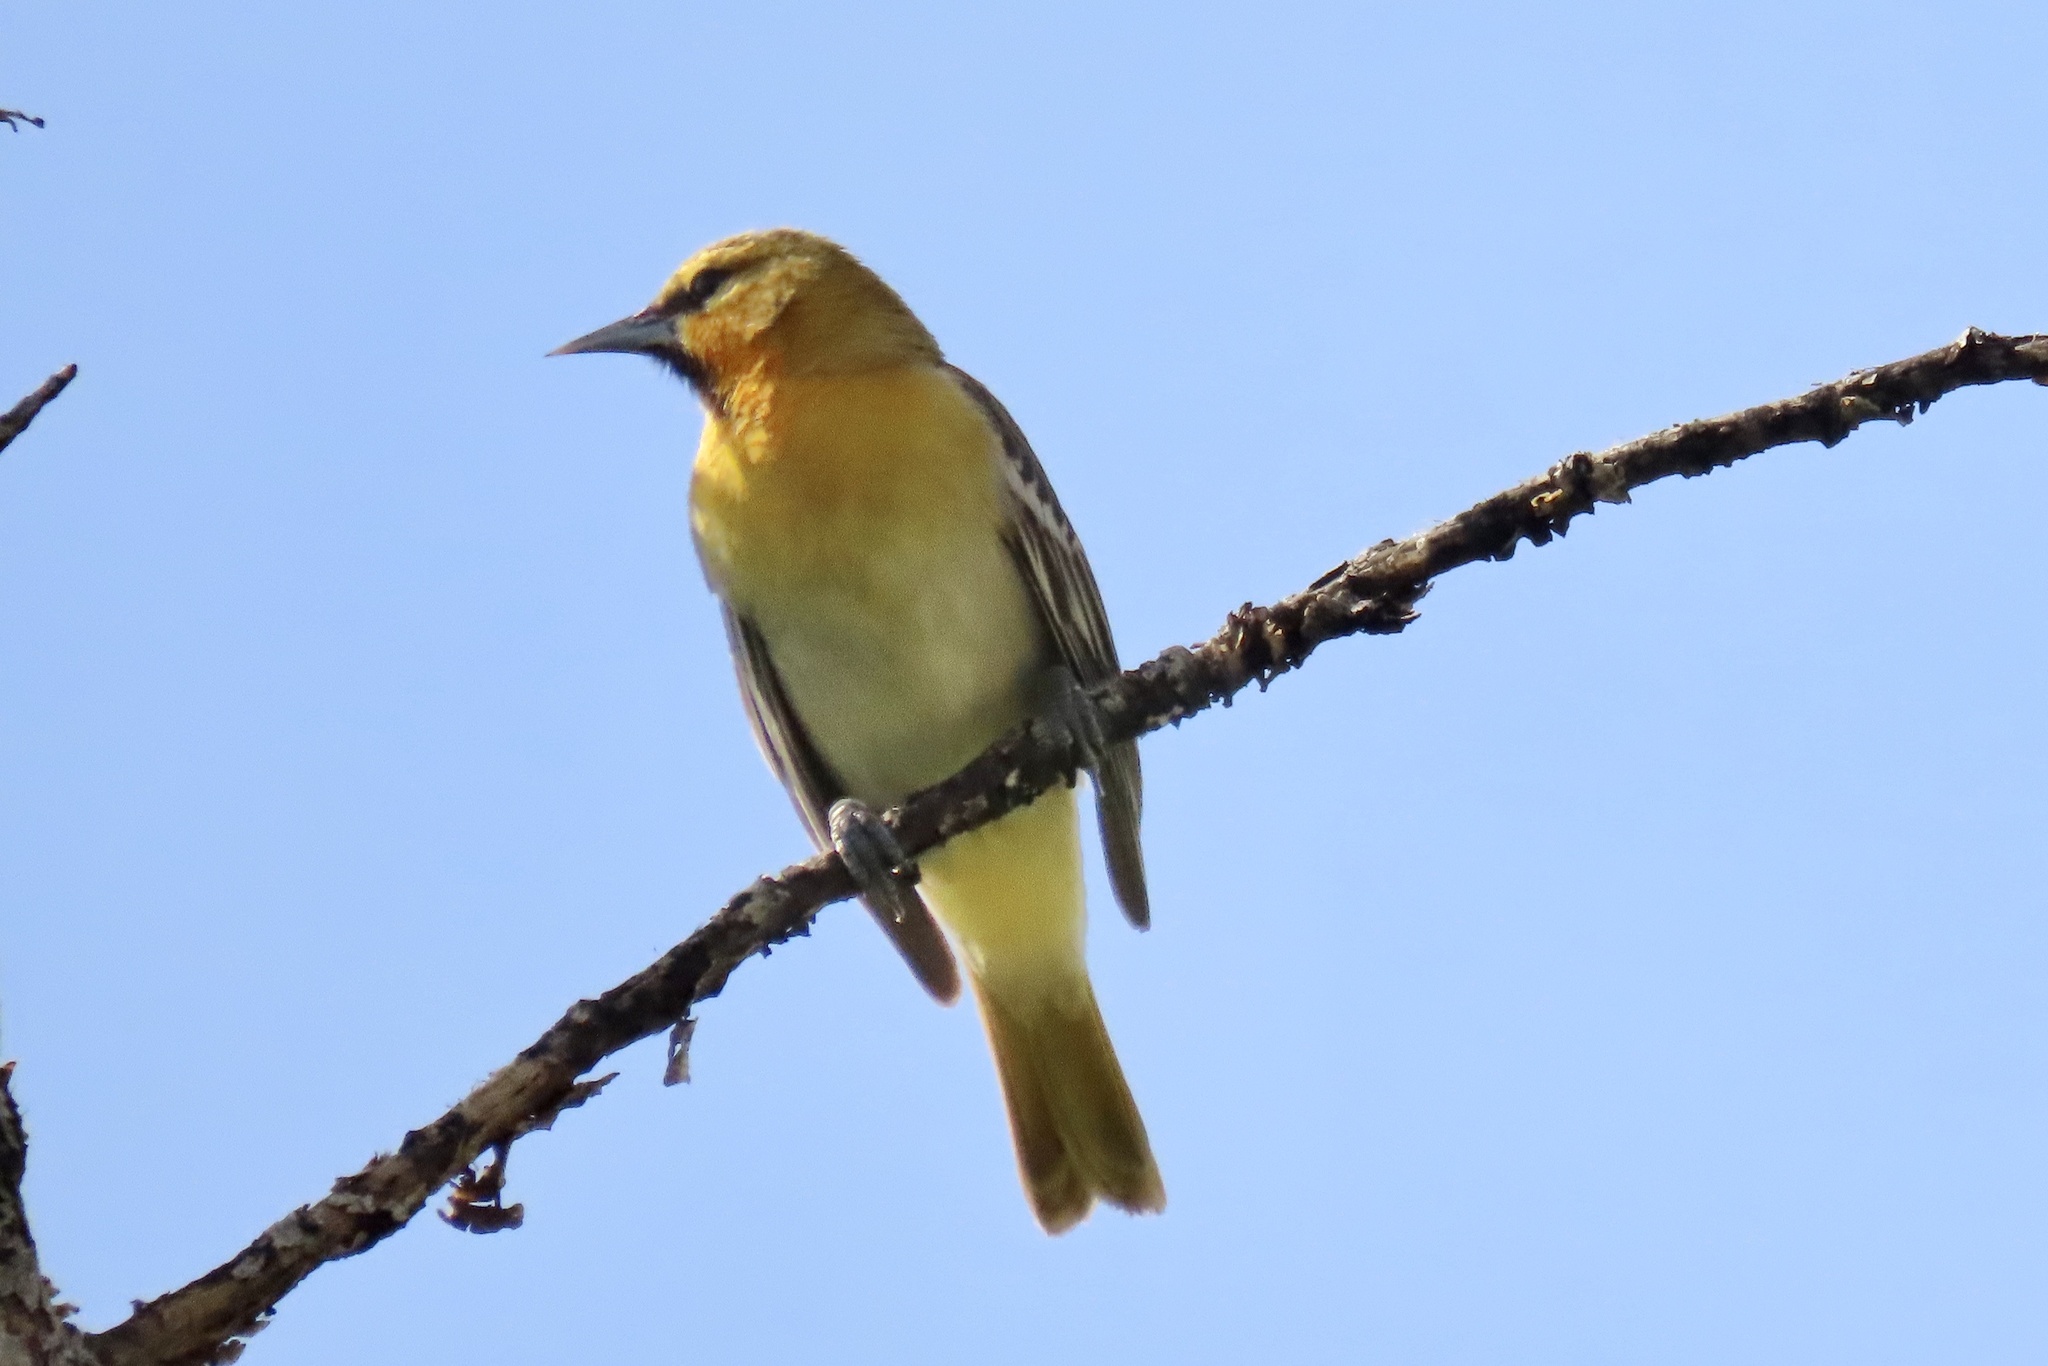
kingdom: Animalia
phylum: Chordata
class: Aves
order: Passeriformes
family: Icteridae
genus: Icterus
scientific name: Icterus bullockii
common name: Bullock's oriole
